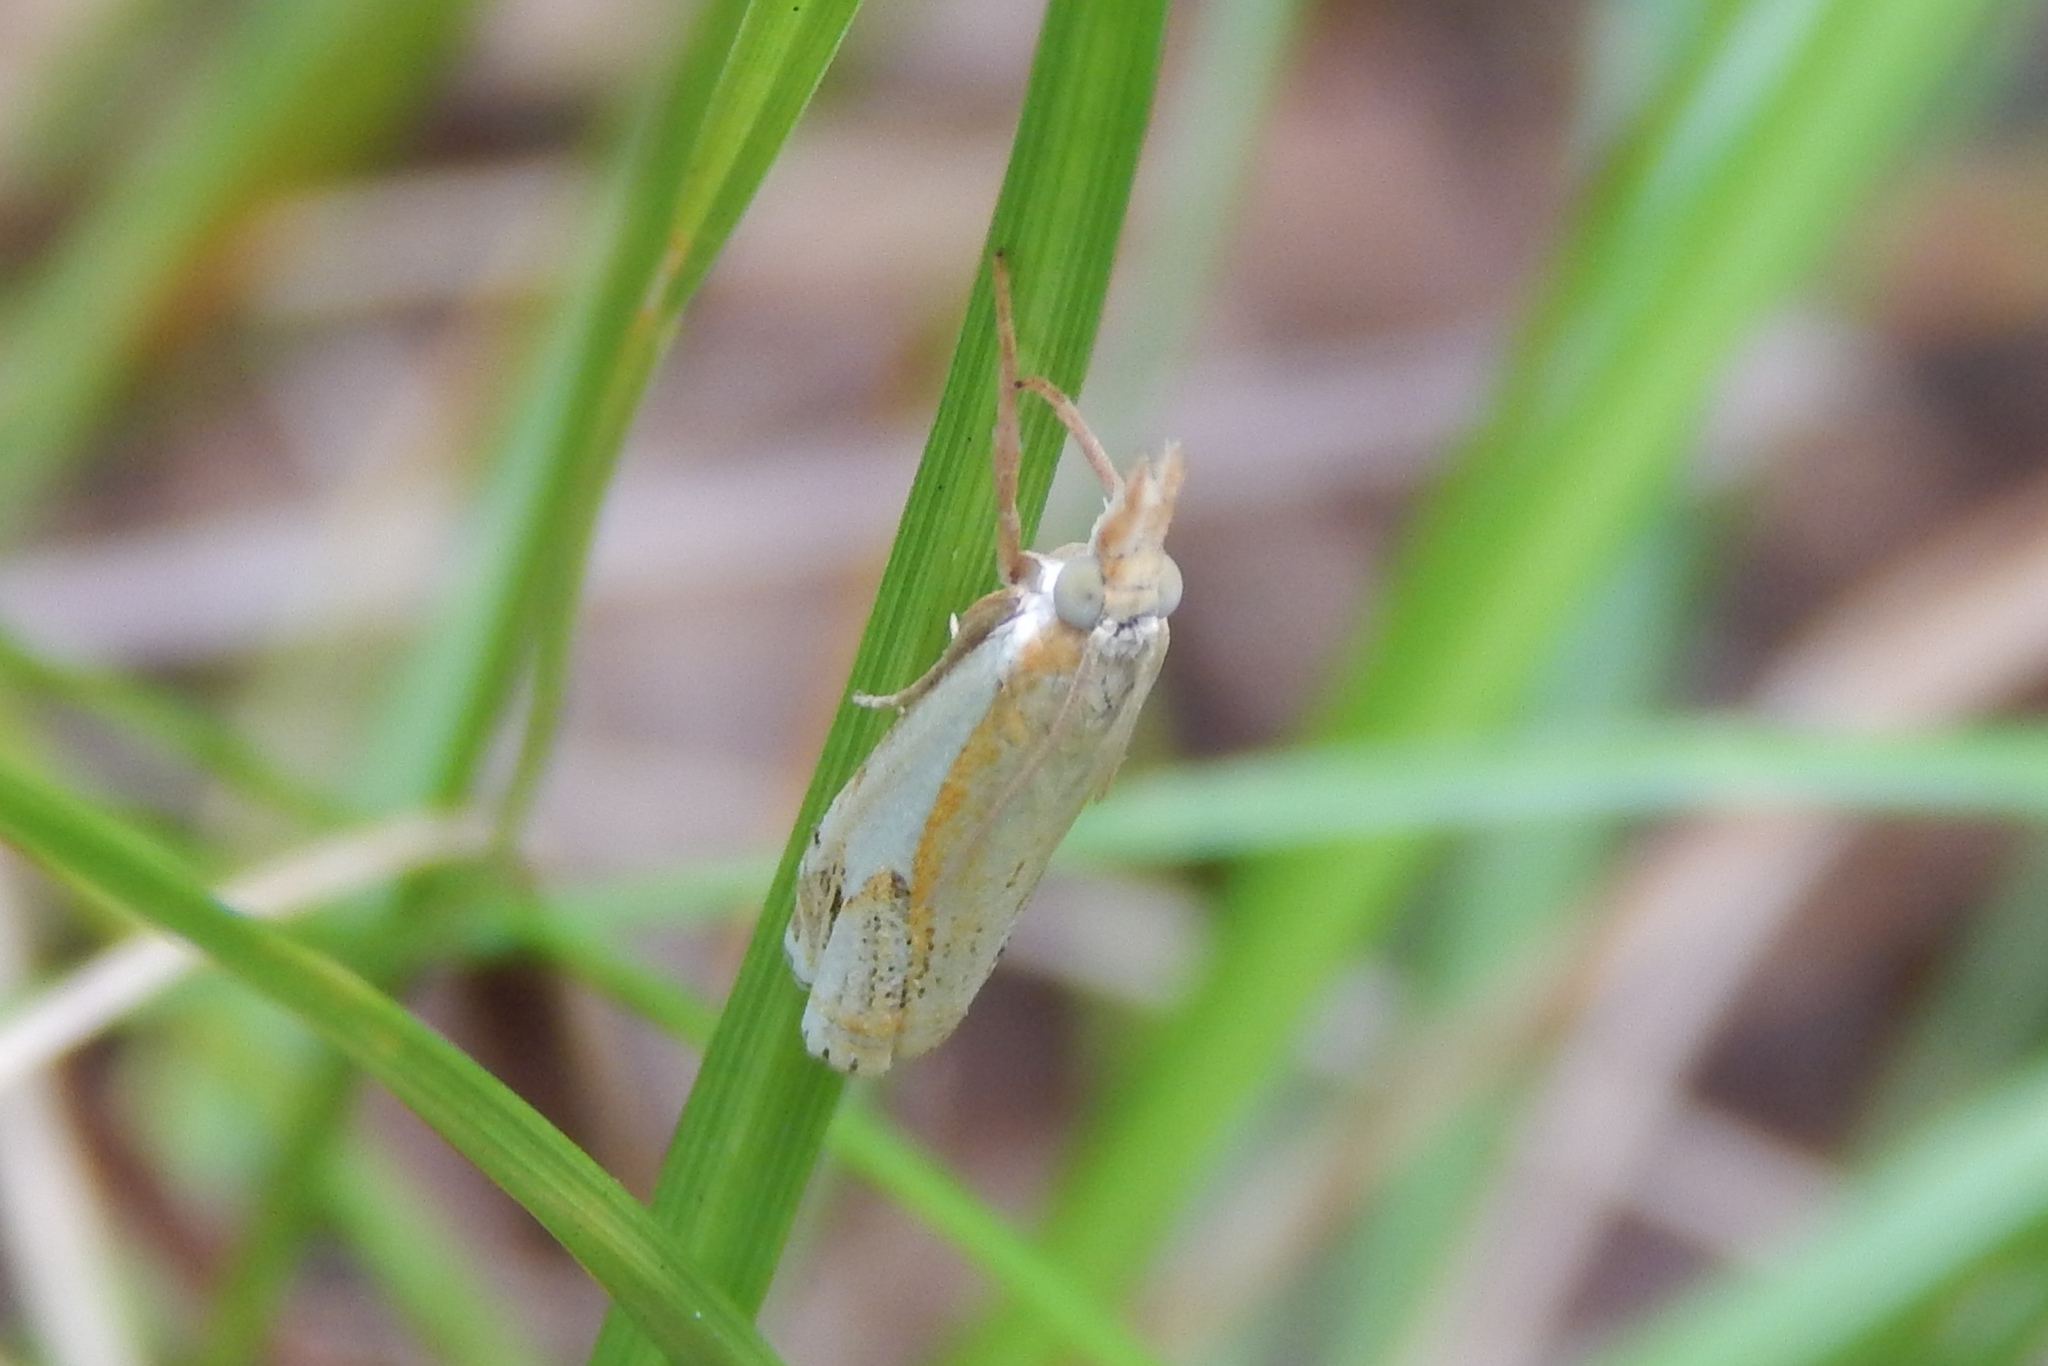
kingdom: Animalia
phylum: Arthropoda
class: Insecta
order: Lepidoptera
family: Crambidae
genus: Crambus
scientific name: Crambus agitatellus
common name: Double-banded grass-veneer
